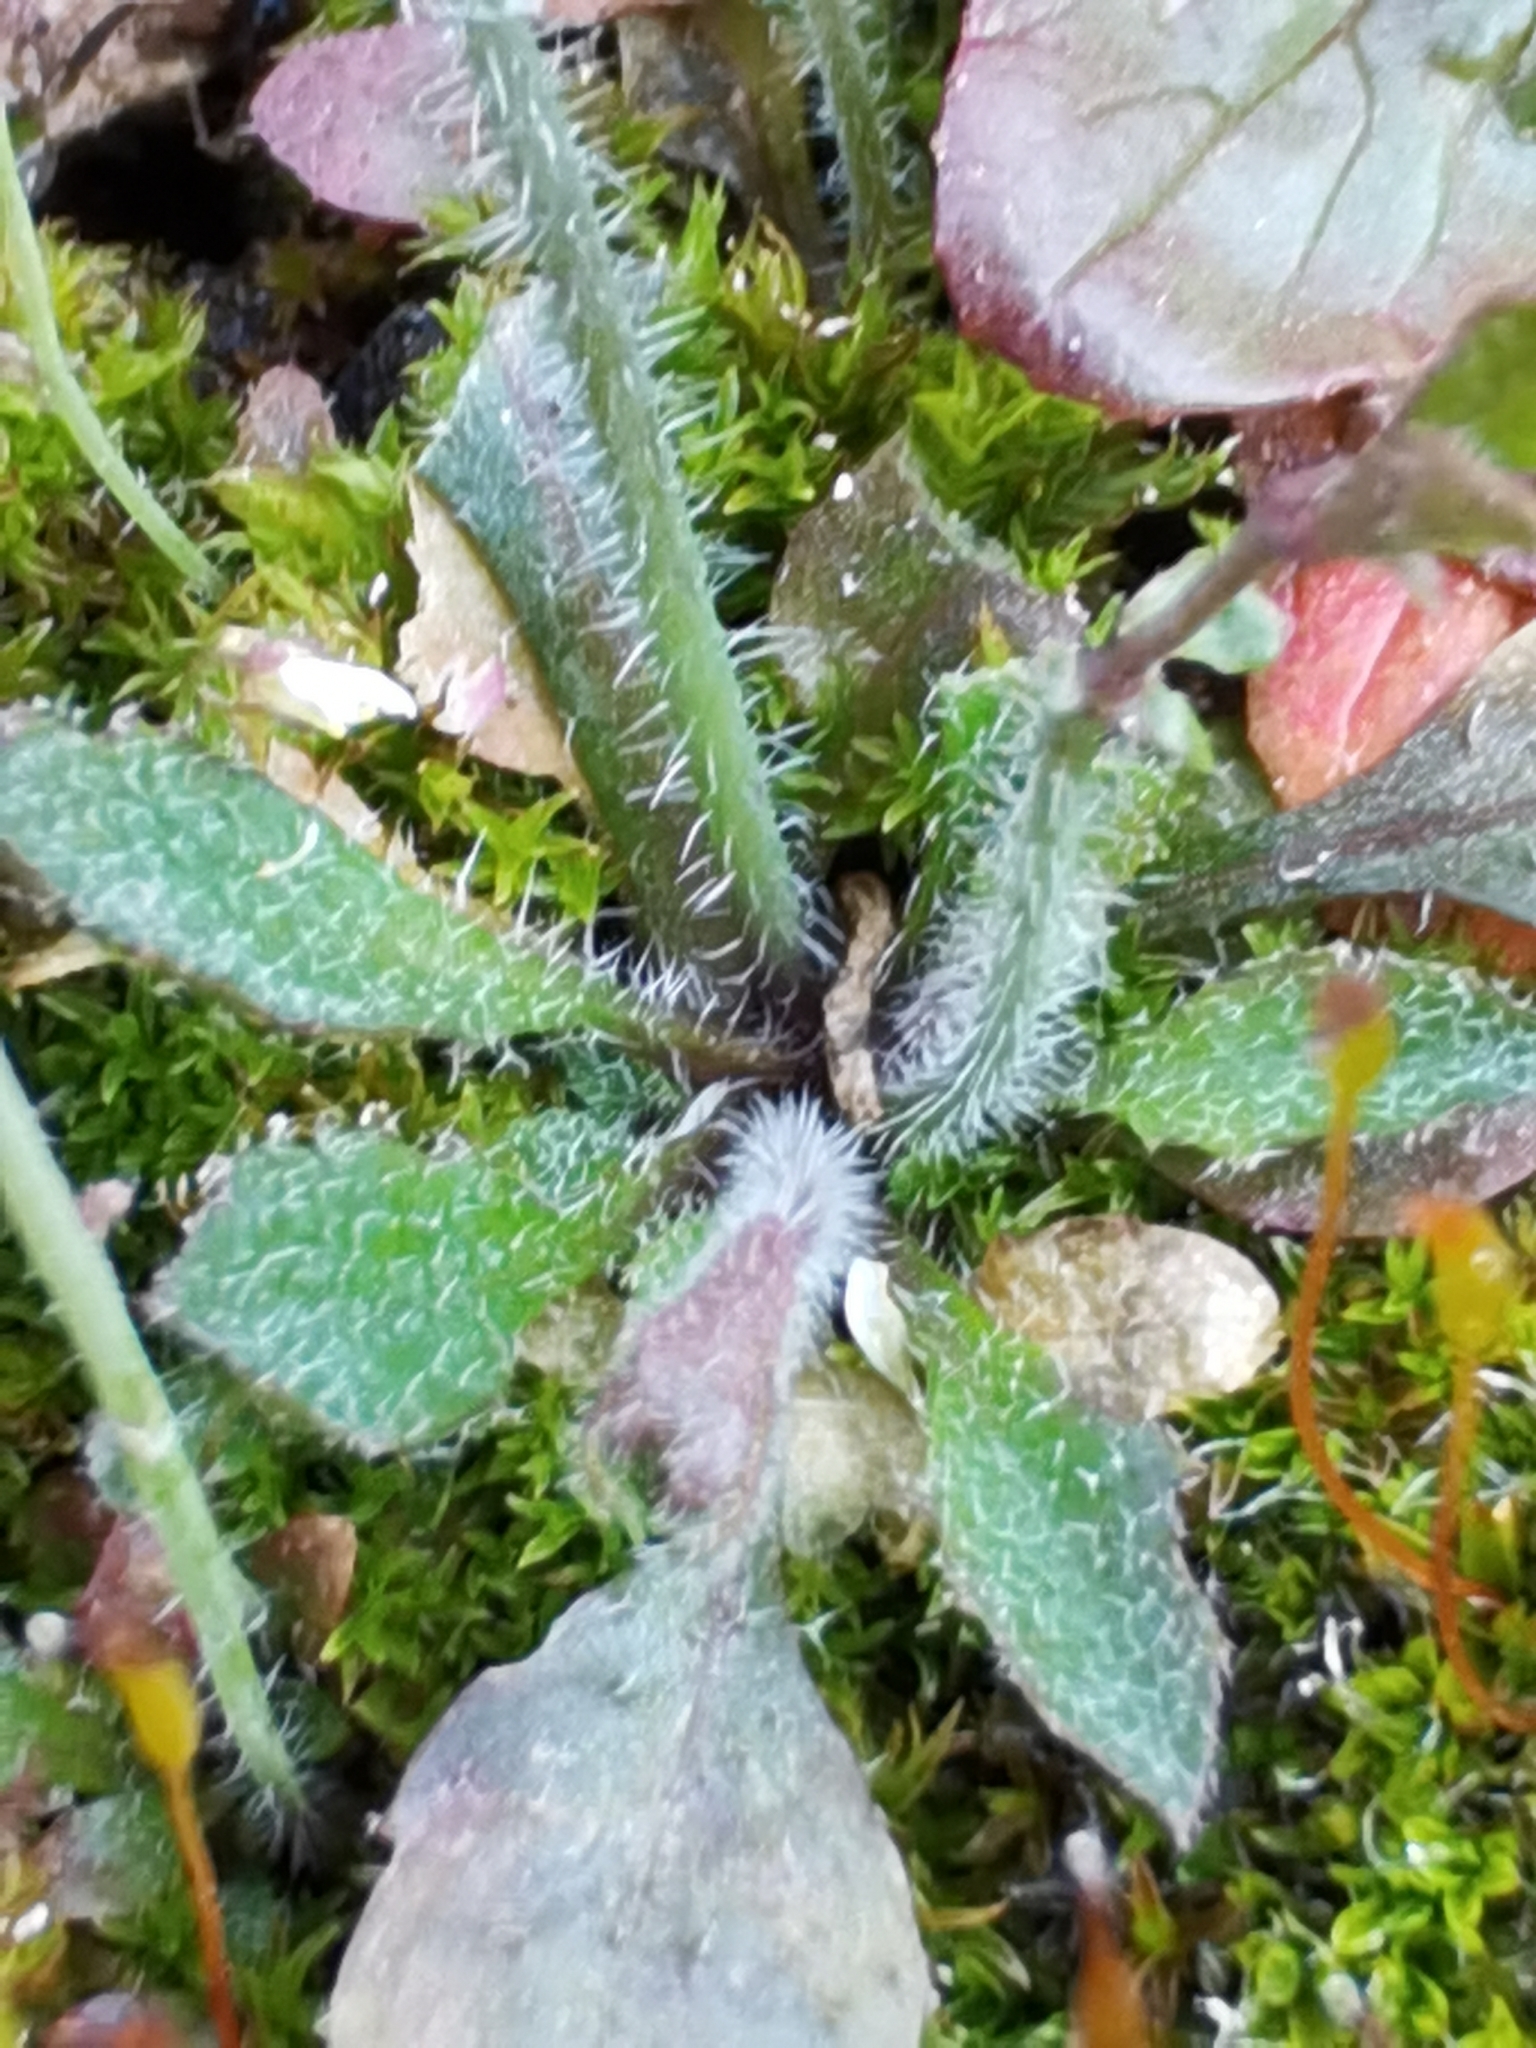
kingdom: Plantae
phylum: Tracheophyta
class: Magnoliopsida
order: Brassicales
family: Brassicaceae
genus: Arabidopsis
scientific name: Arabidopsis thaliana
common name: Thale cress
